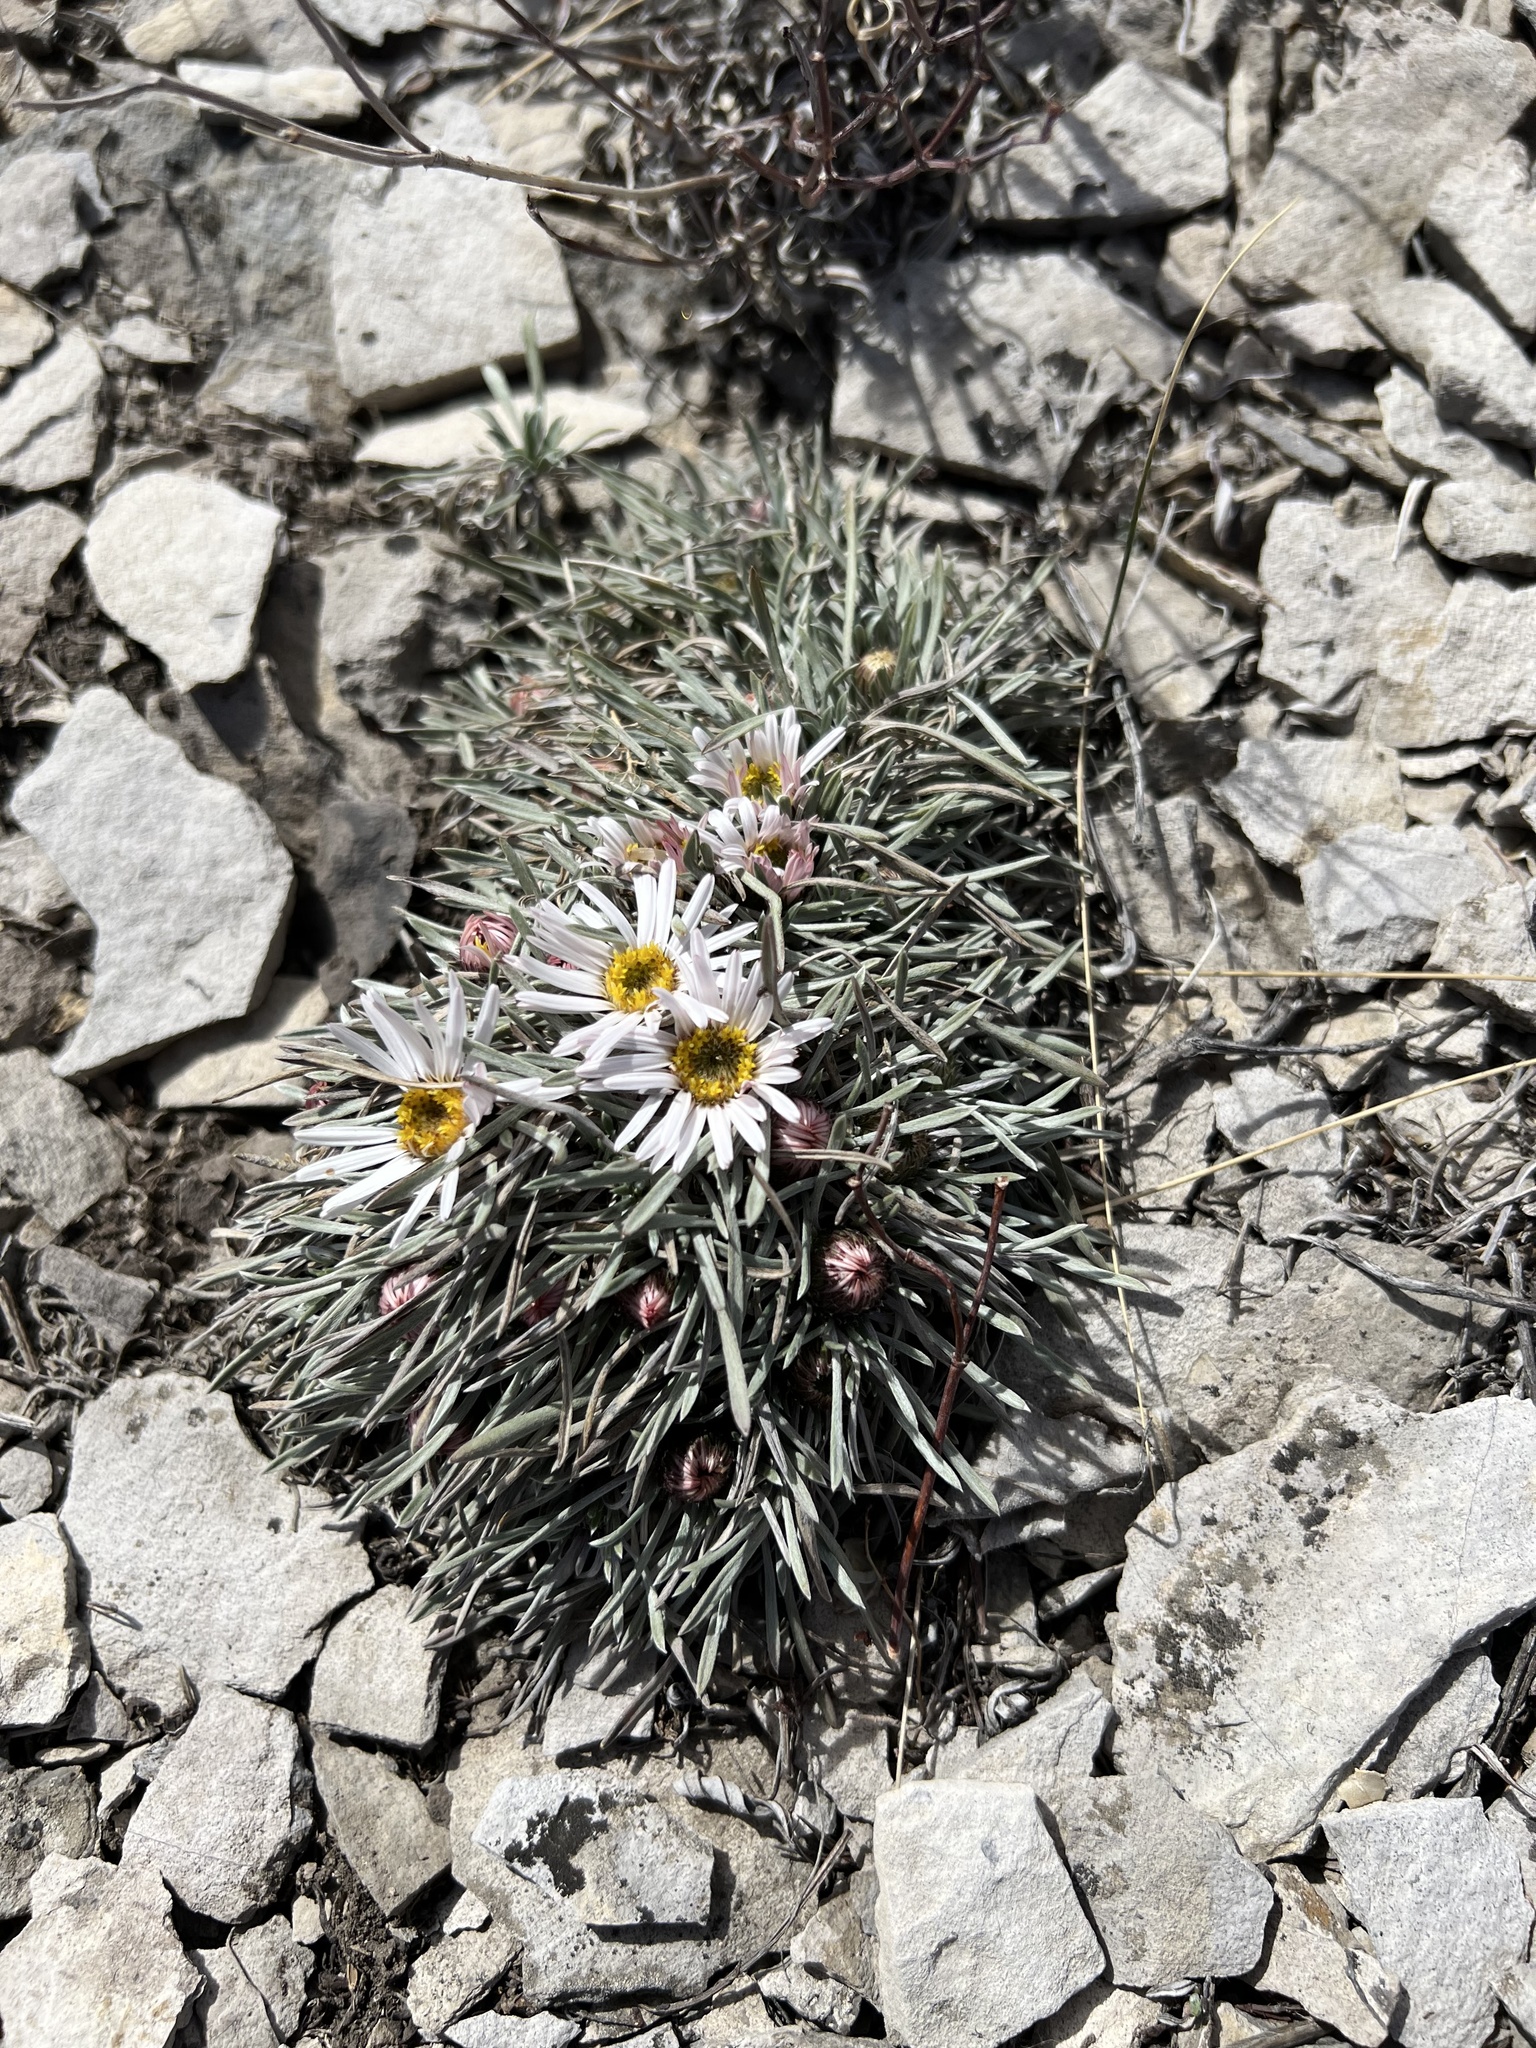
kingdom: Plantae
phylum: Tracheophyta
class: Magnoliopsida
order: Asterales
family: Asteraceae
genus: Townsendia
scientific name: Townsendia hookeri
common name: Hooker's townsend daisy
